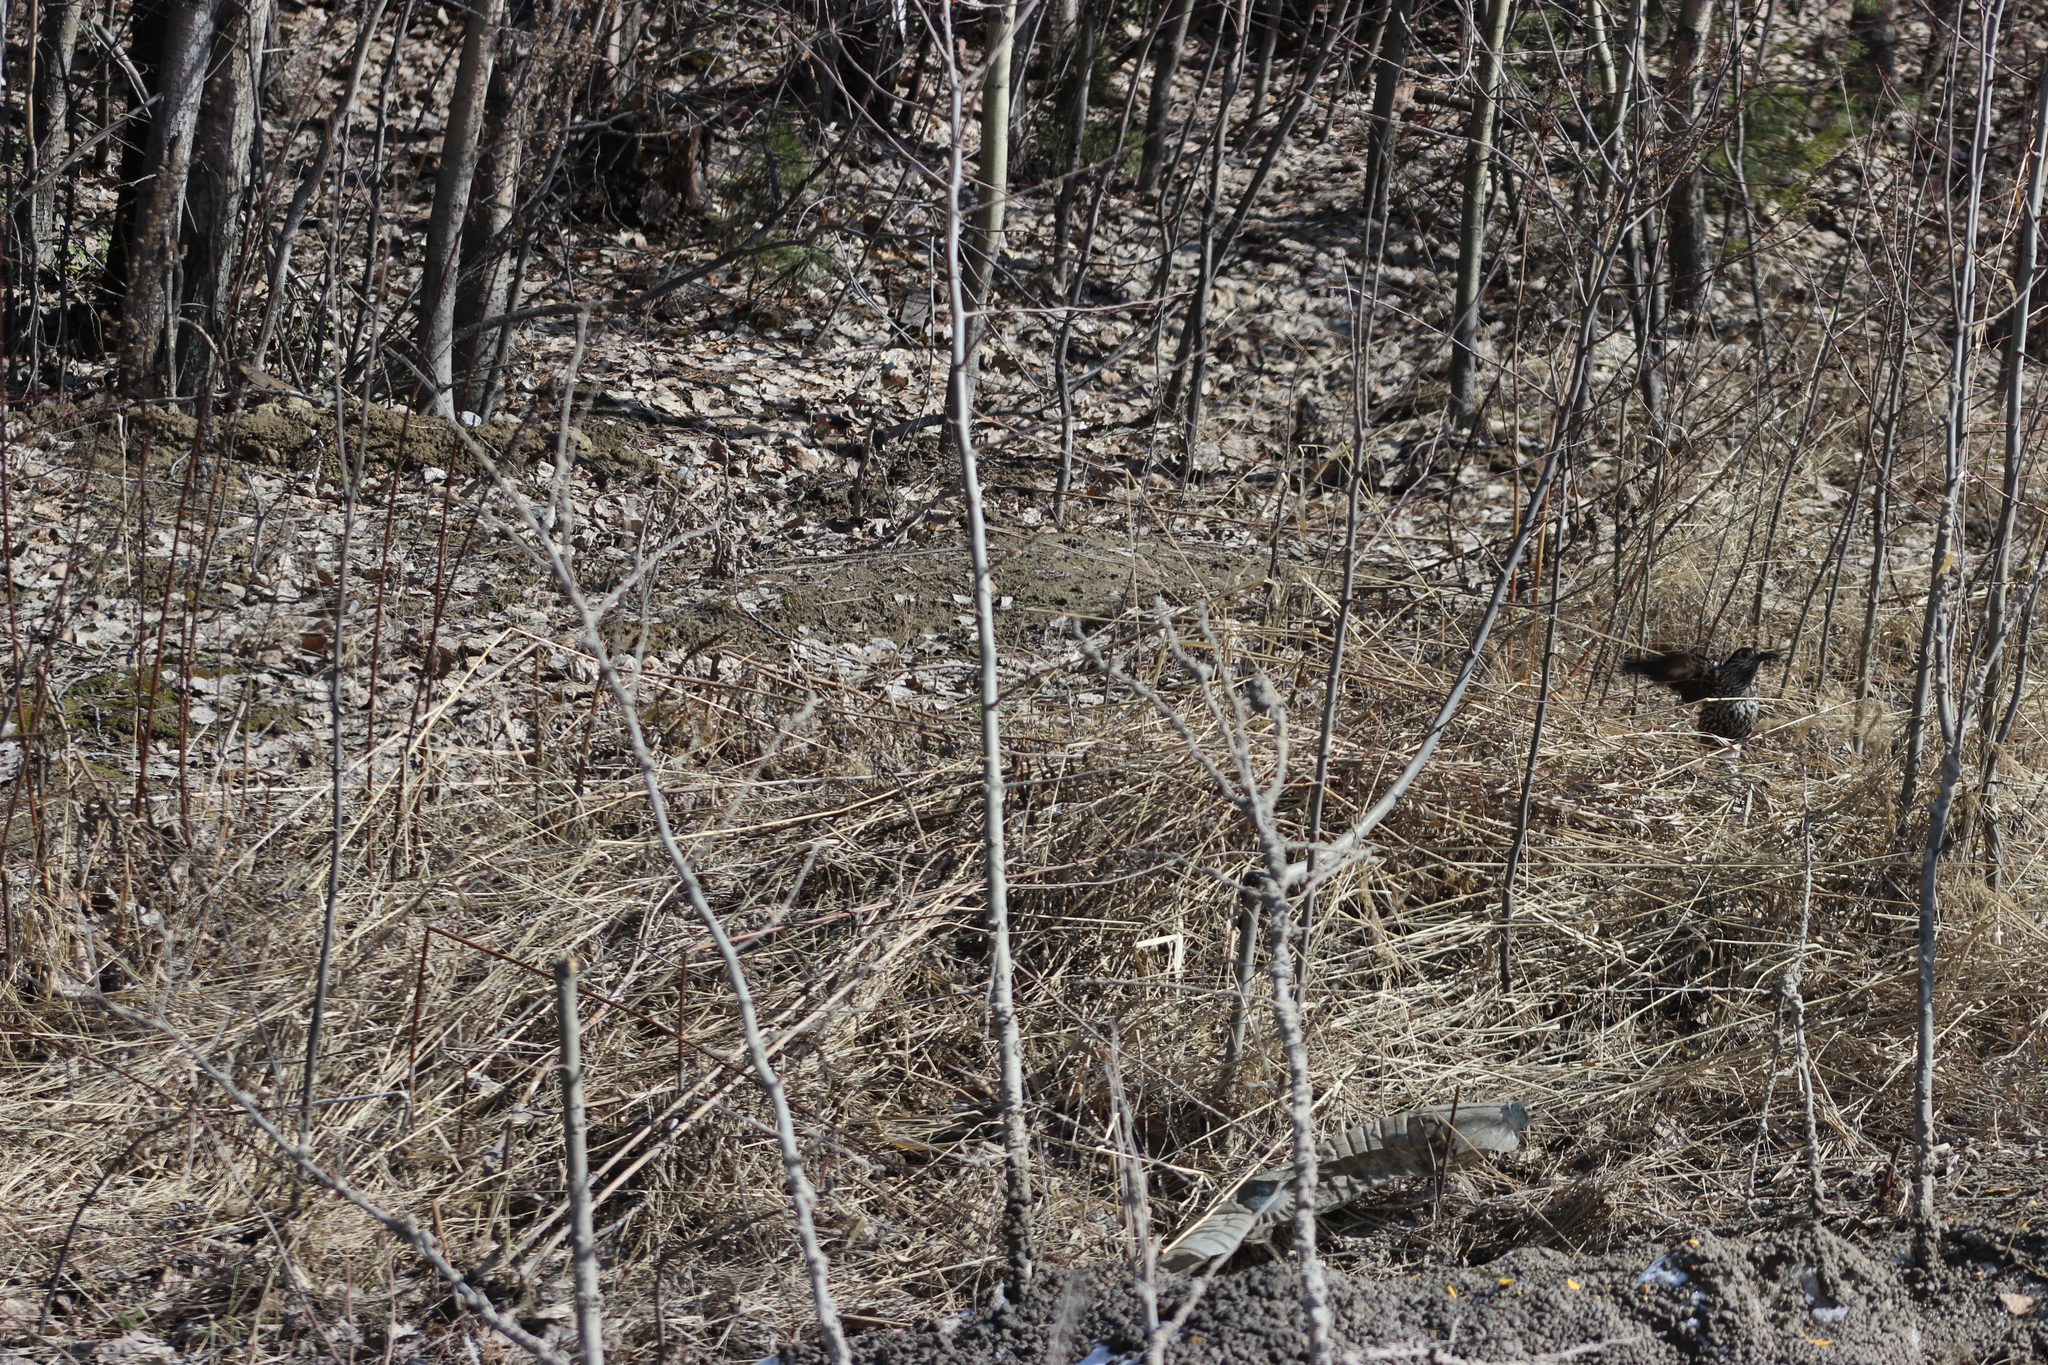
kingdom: Animalia
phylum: Chordata
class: Aves
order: Passeriformes
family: Corvidae
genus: Nucifraga
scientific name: Nucifraga caryocatactes
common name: Spotted nutcracker
